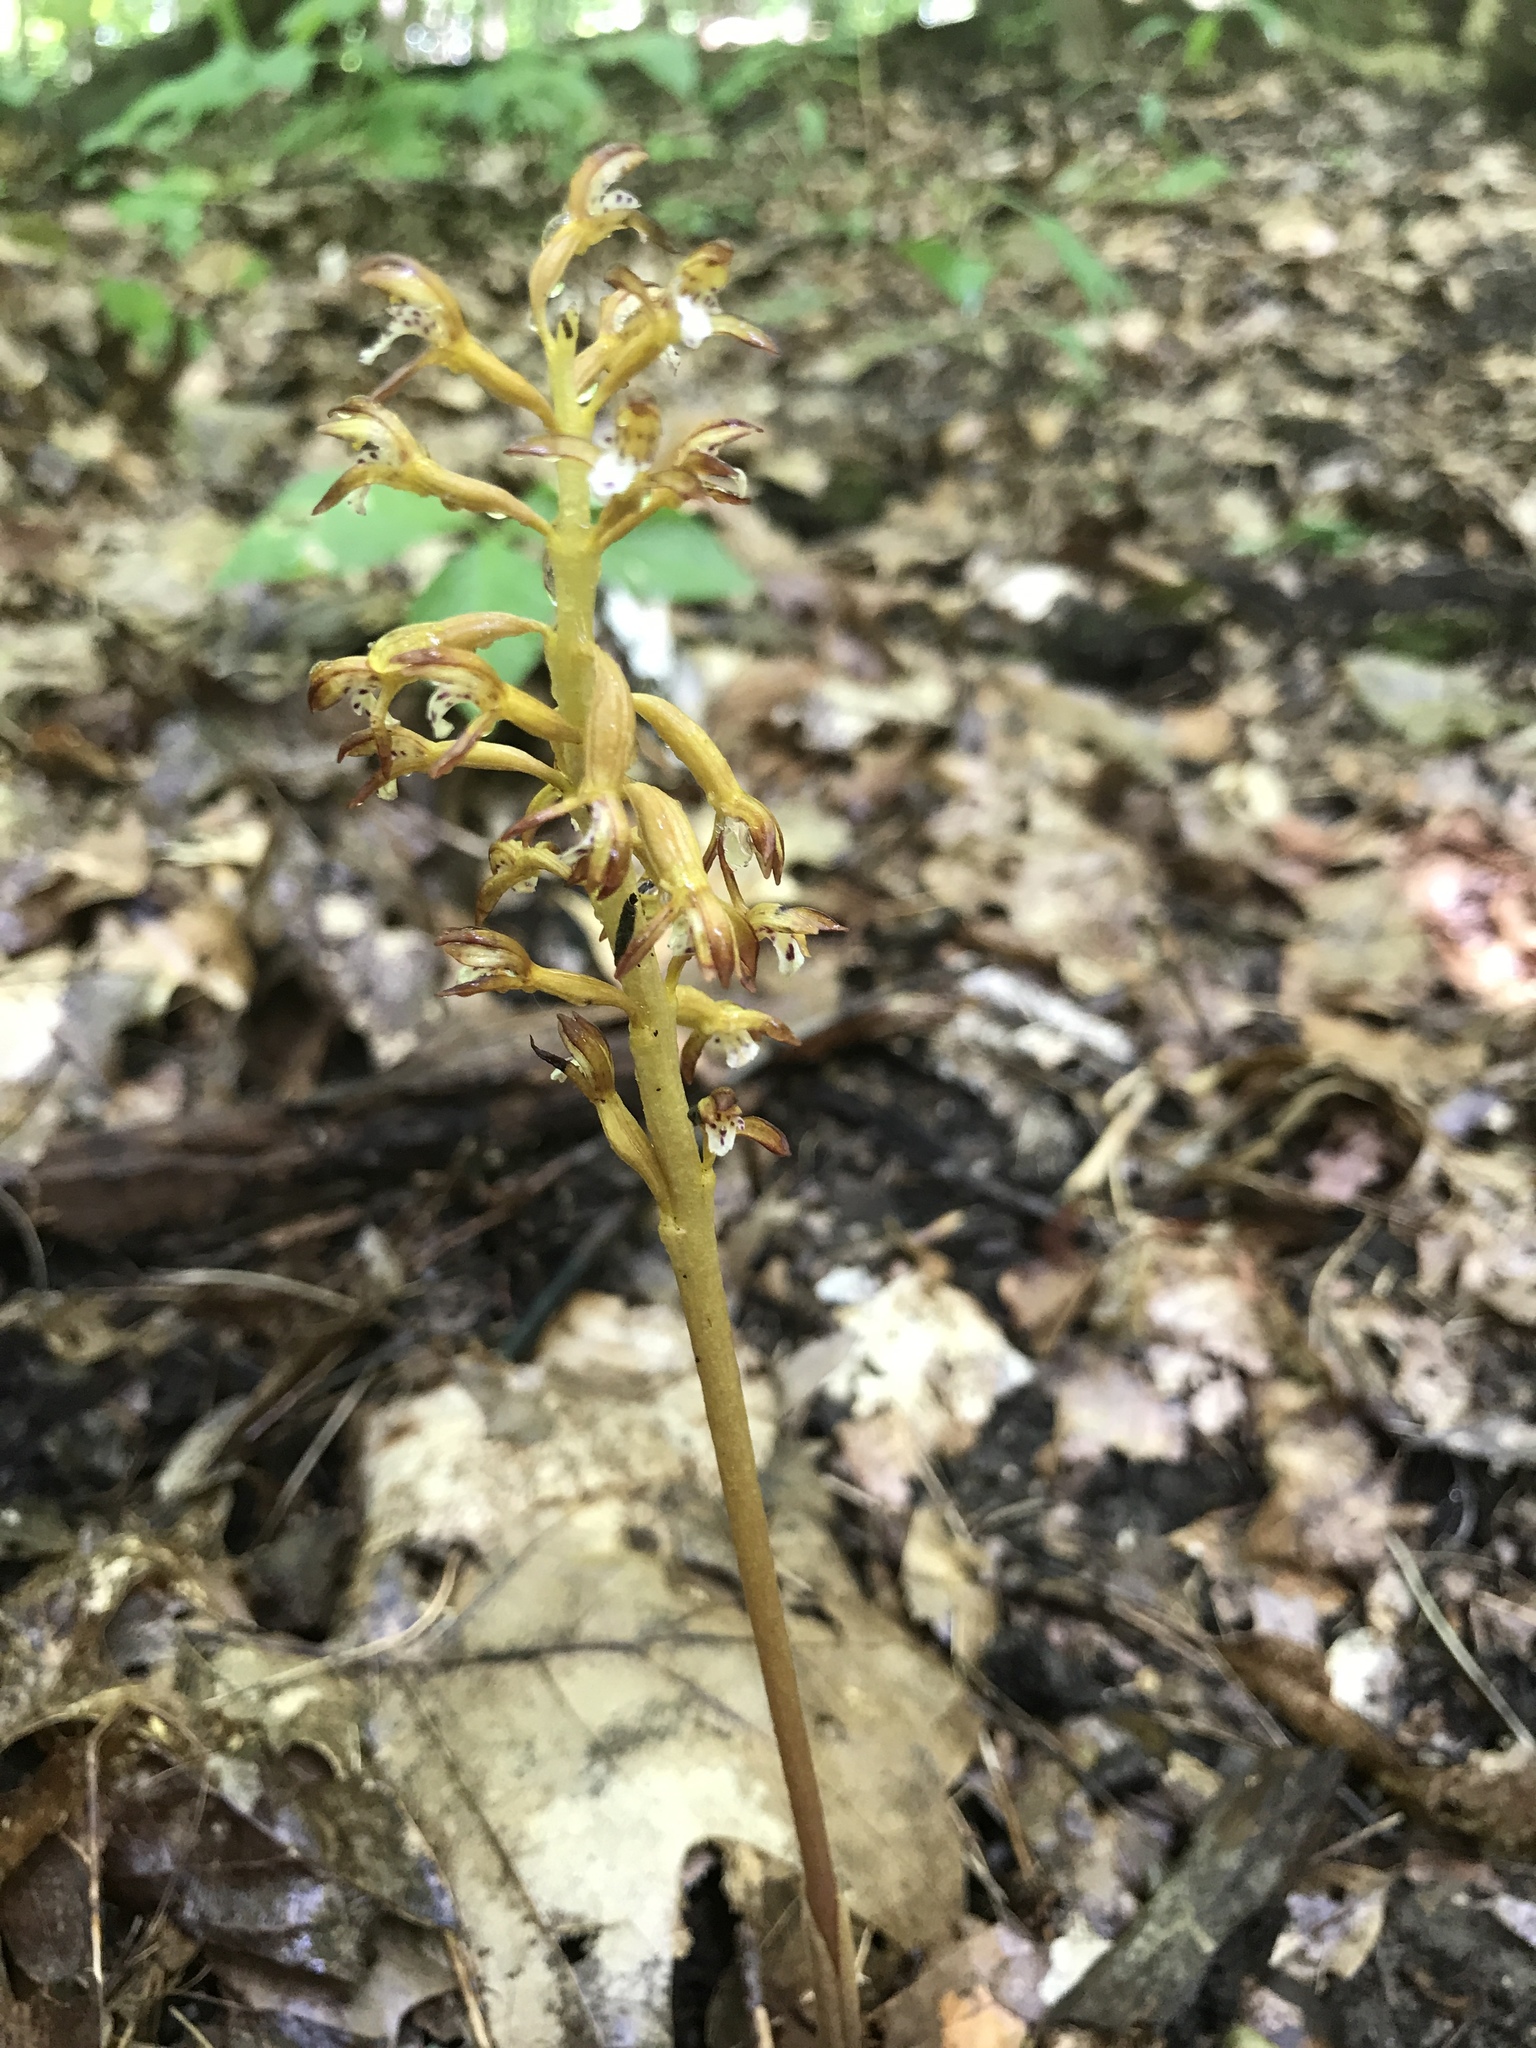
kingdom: Plantae
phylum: Tracheophyta
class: Liliopsida
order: Asparagales
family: Orchidaceae
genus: Corallorhiza
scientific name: Corallorhiza maculata
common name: Spotted coralroot
